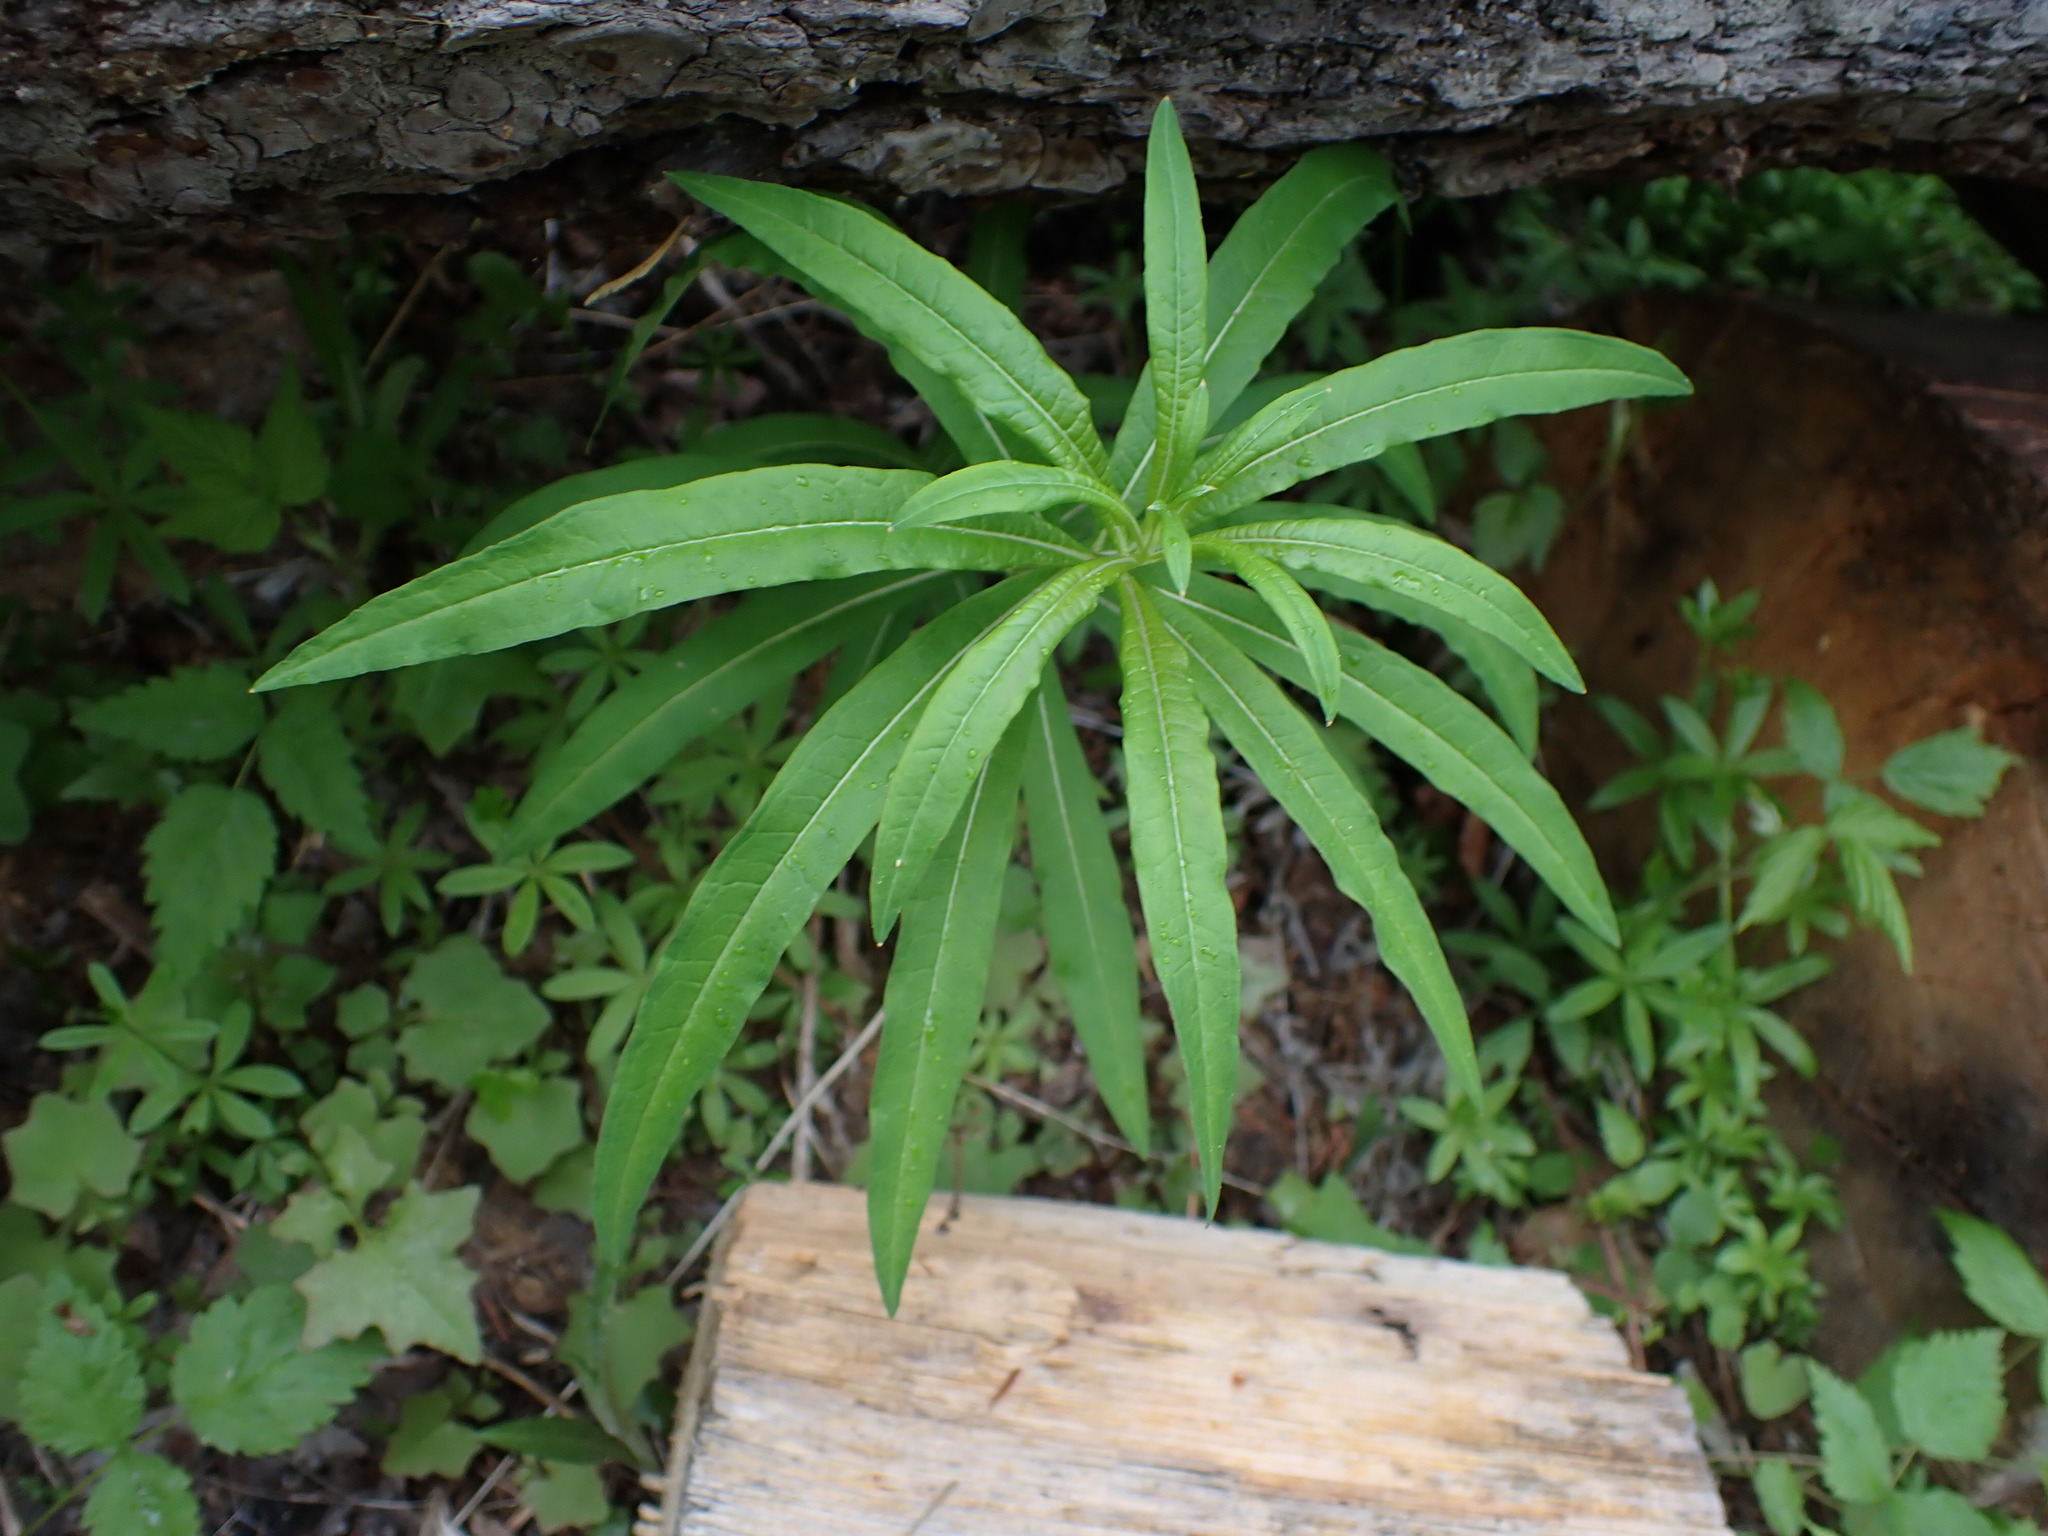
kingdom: Plantae
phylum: Tracheophyta
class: Magnoliopsida
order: Myrtales
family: Onagraceae
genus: Chamaenerion
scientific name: Chamaenerion angustifolium
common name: Fireweed
